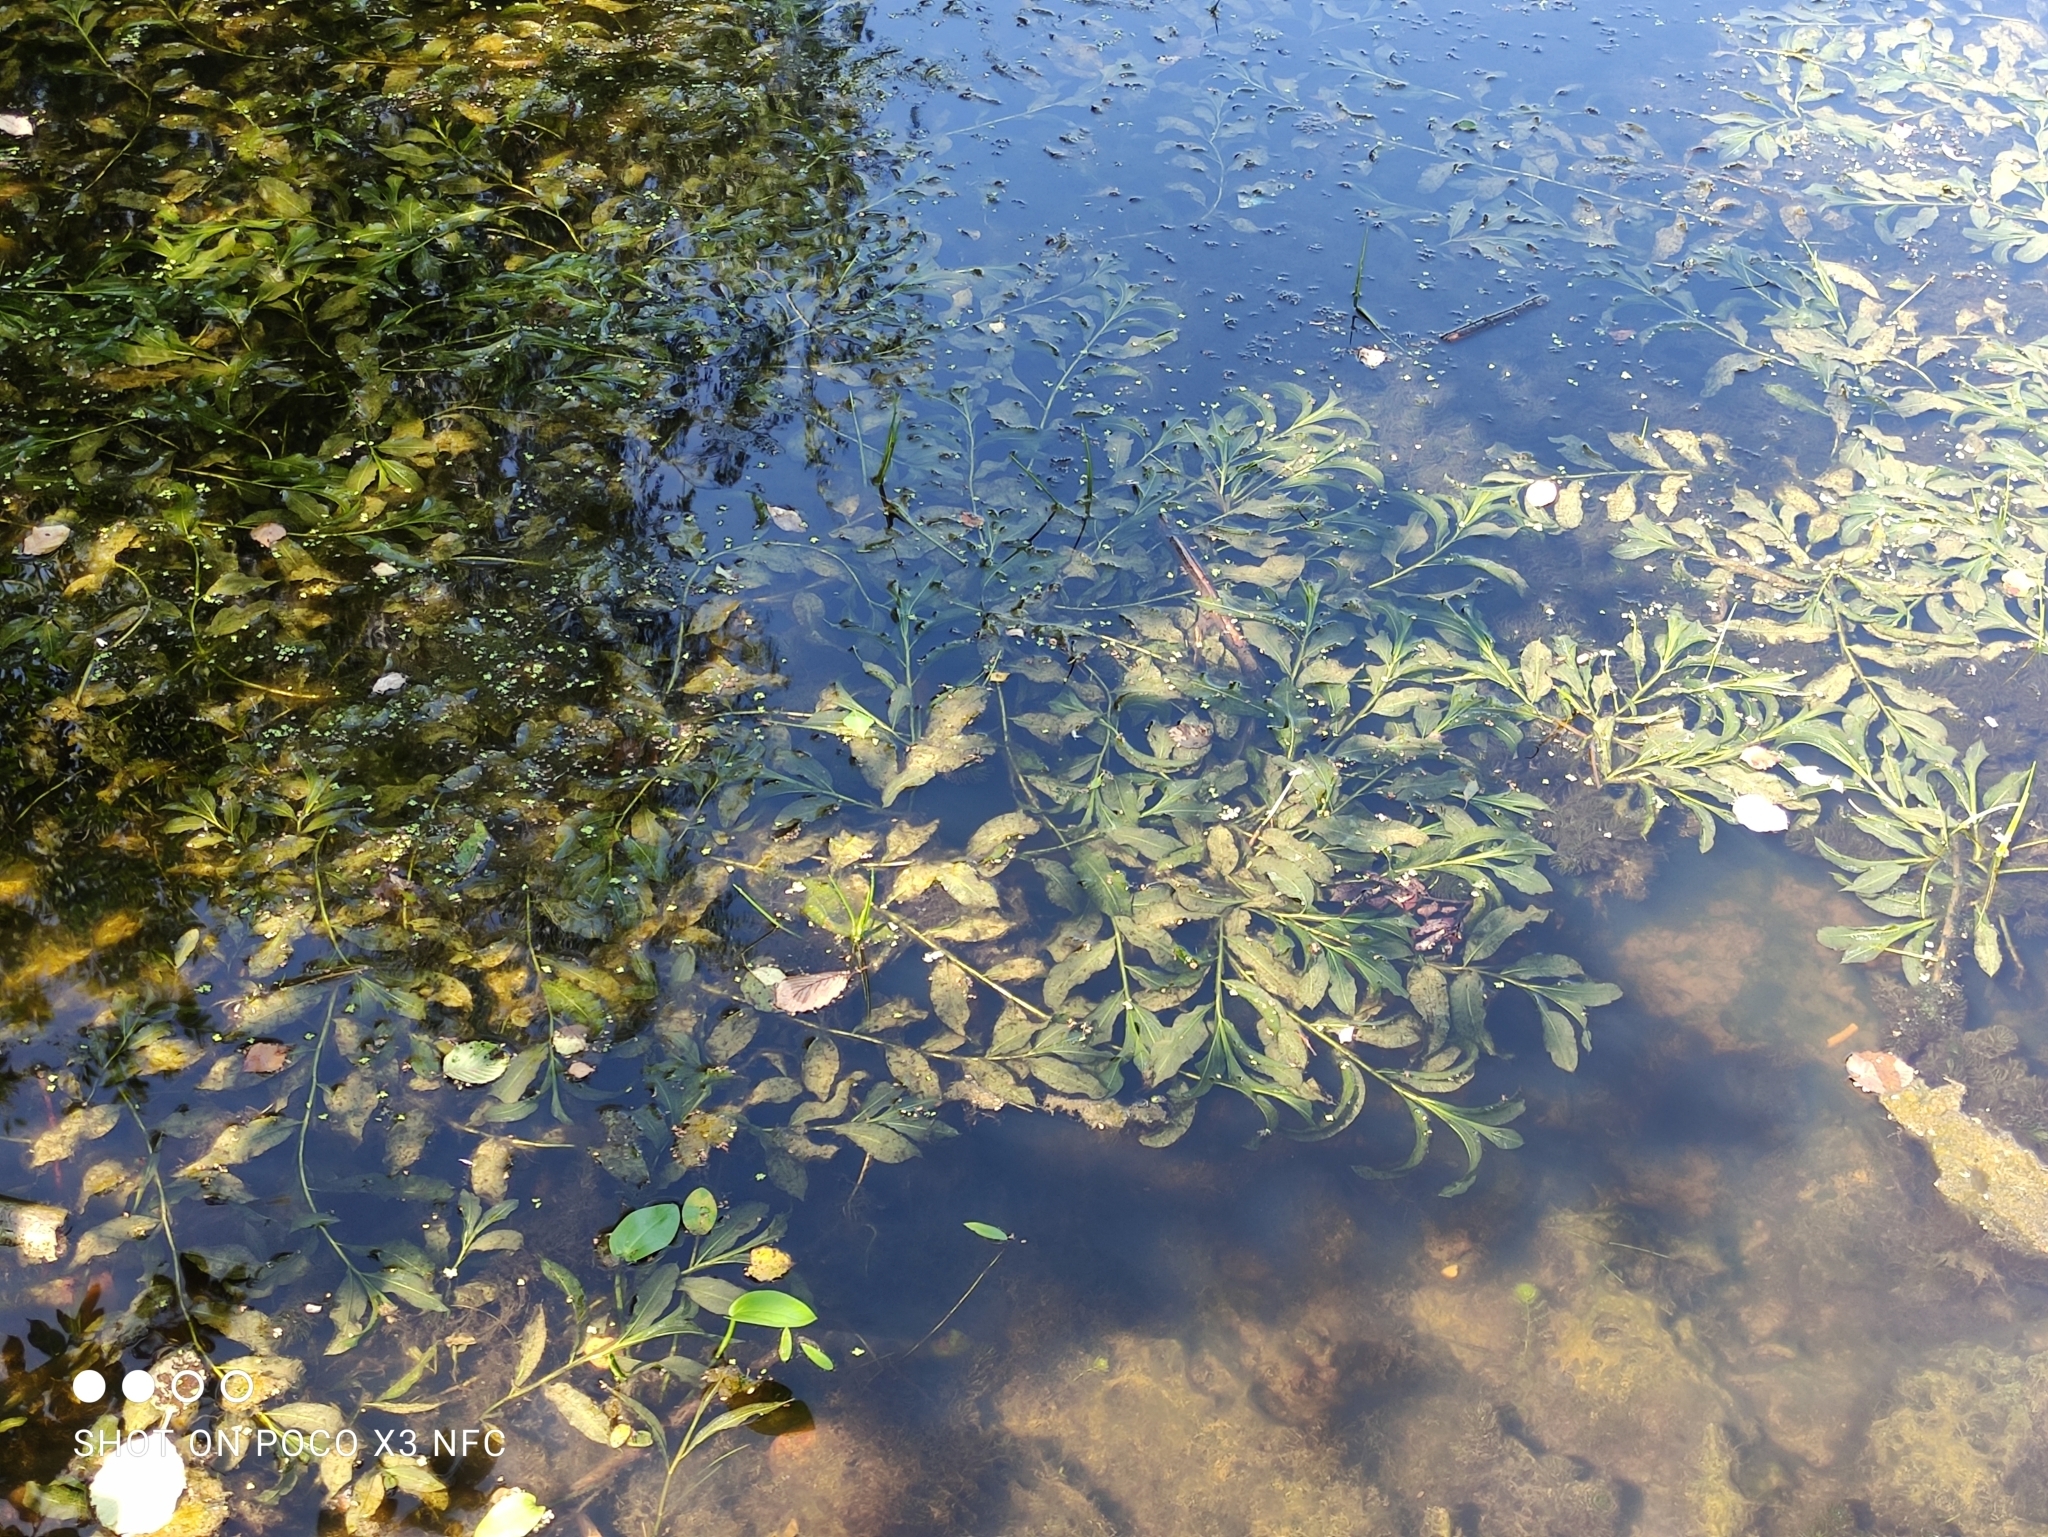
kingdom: Plantae
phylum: Tracheophyta
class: Liliopsida
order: Alismatales
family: Potamogetonaceae
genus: Potamogeton
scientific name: Potamogeton lucens
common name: Shining pondweed
